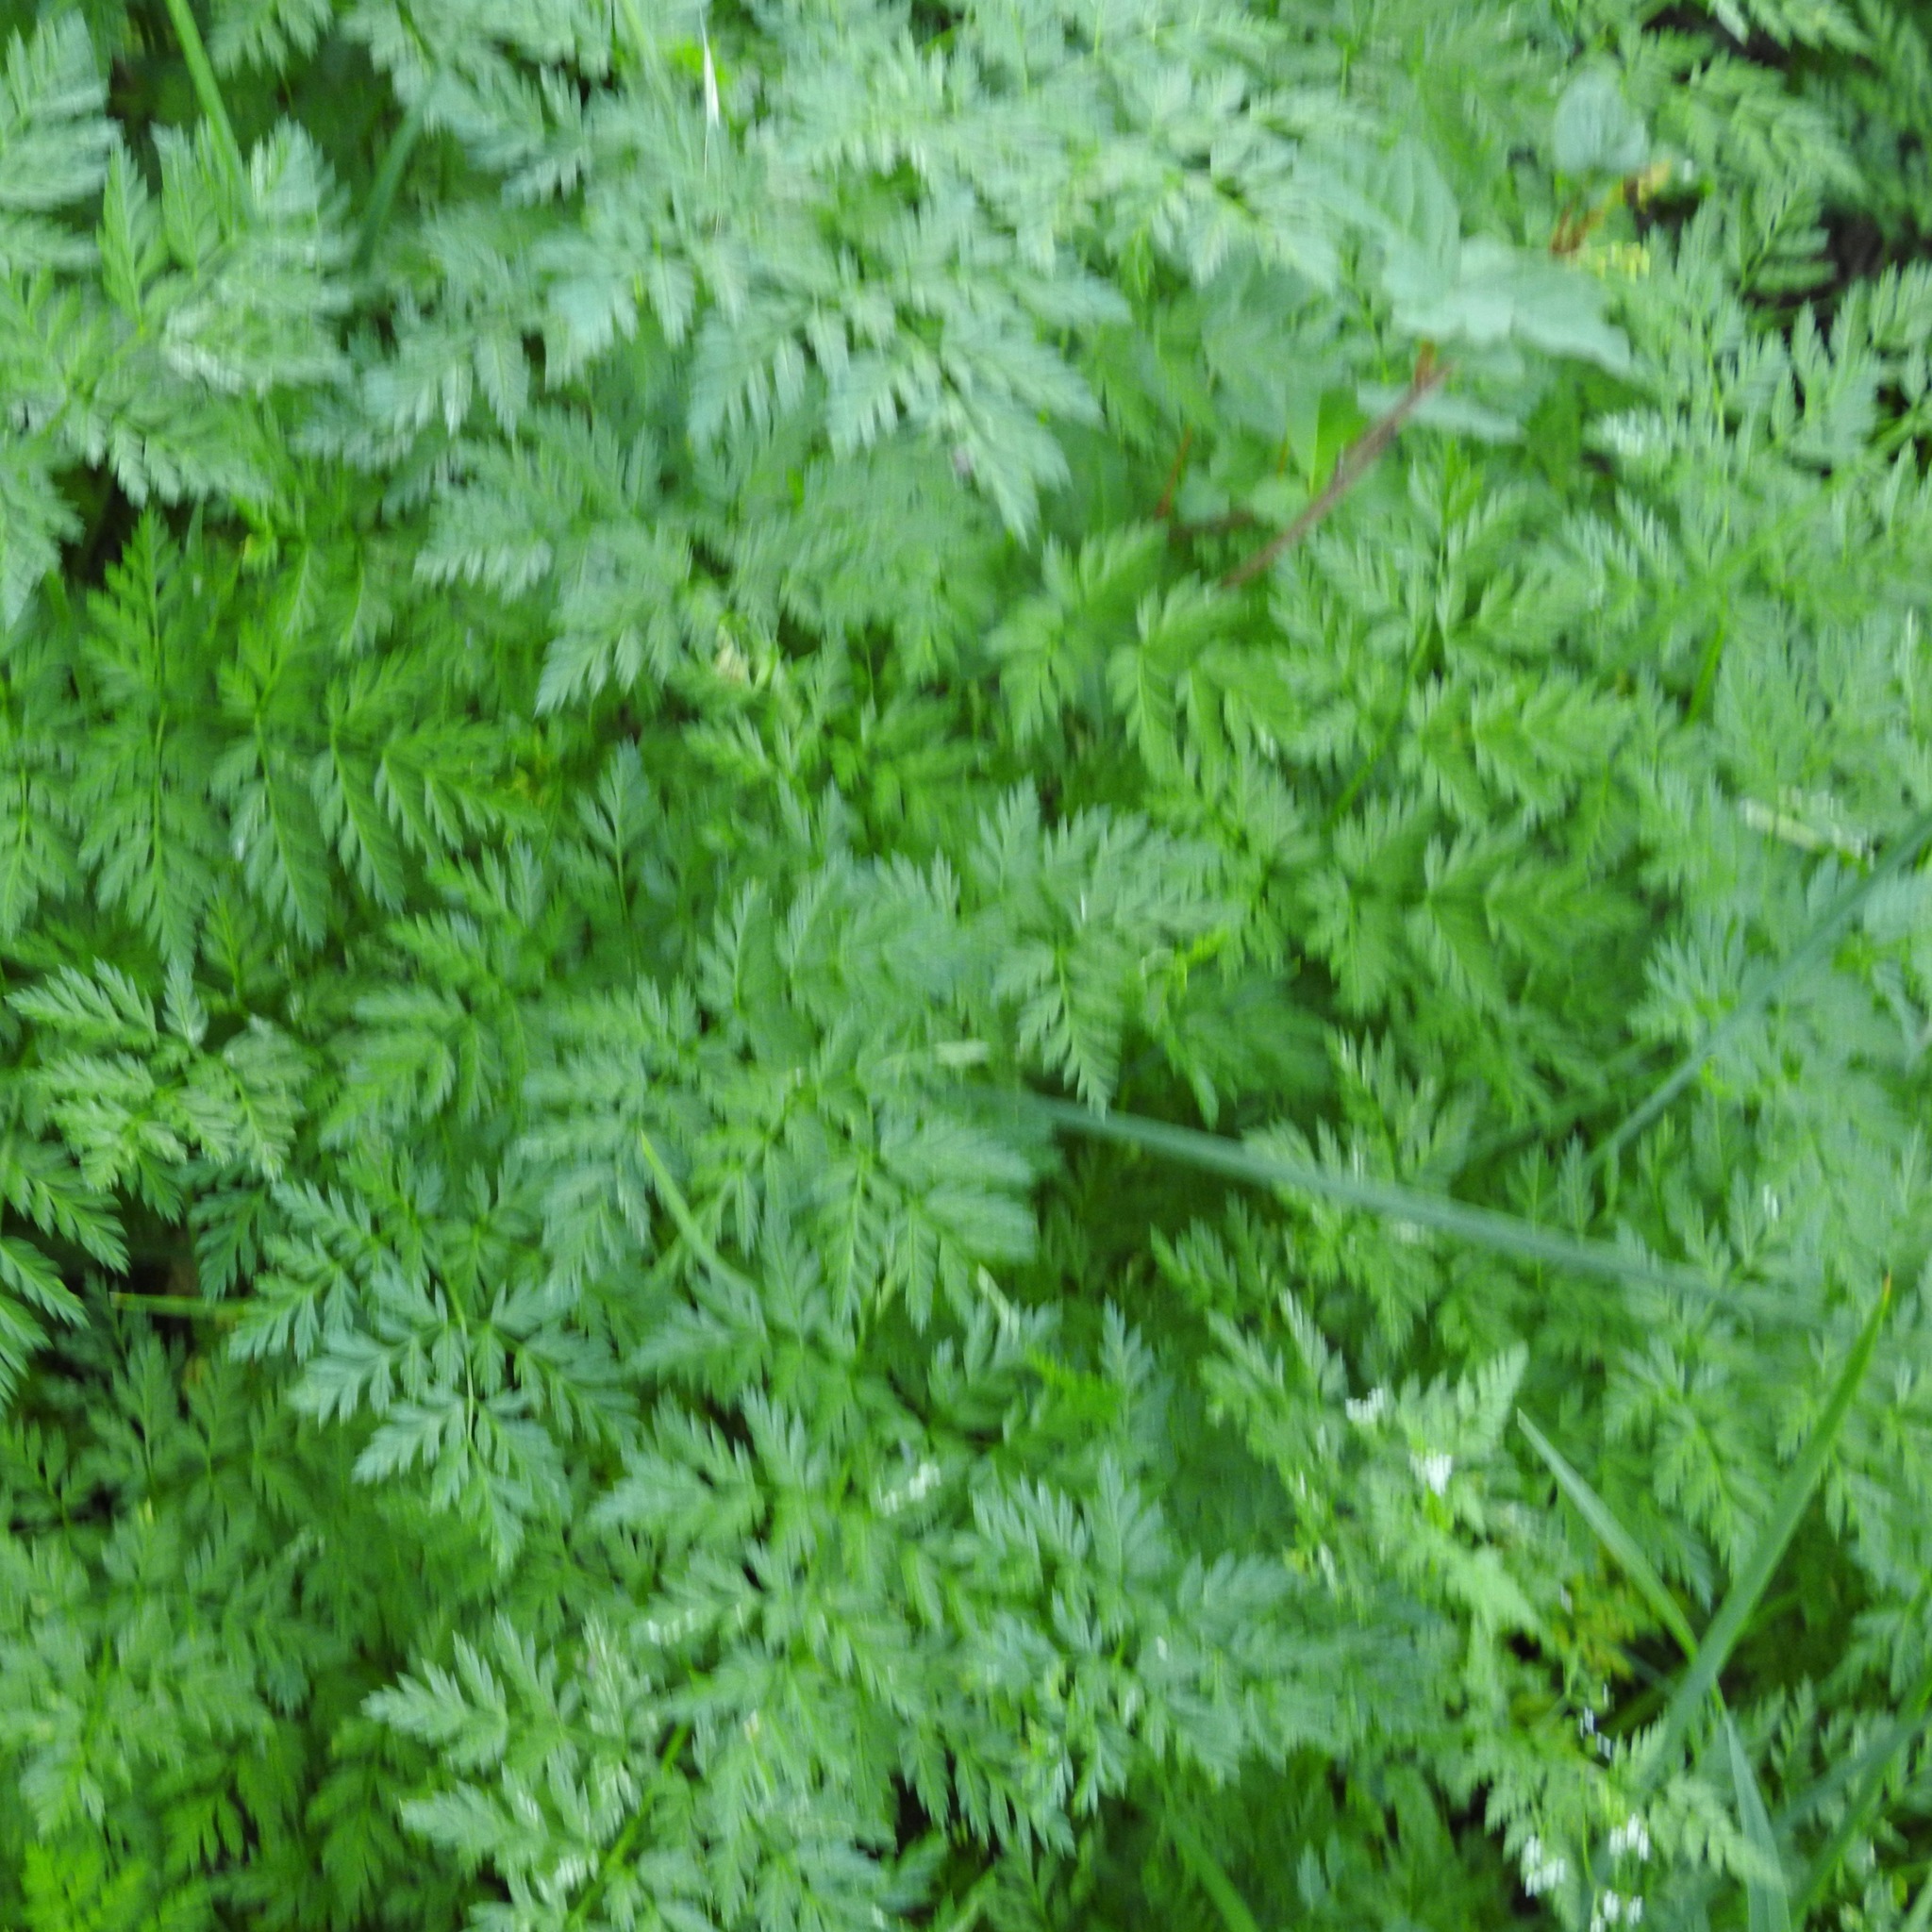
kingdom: Plantae
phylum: Tracheophyta
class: Magnoliopsida
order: Apiales
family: Apiaceae
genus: Conium
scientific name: Conium maculatum
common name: Hemlock
